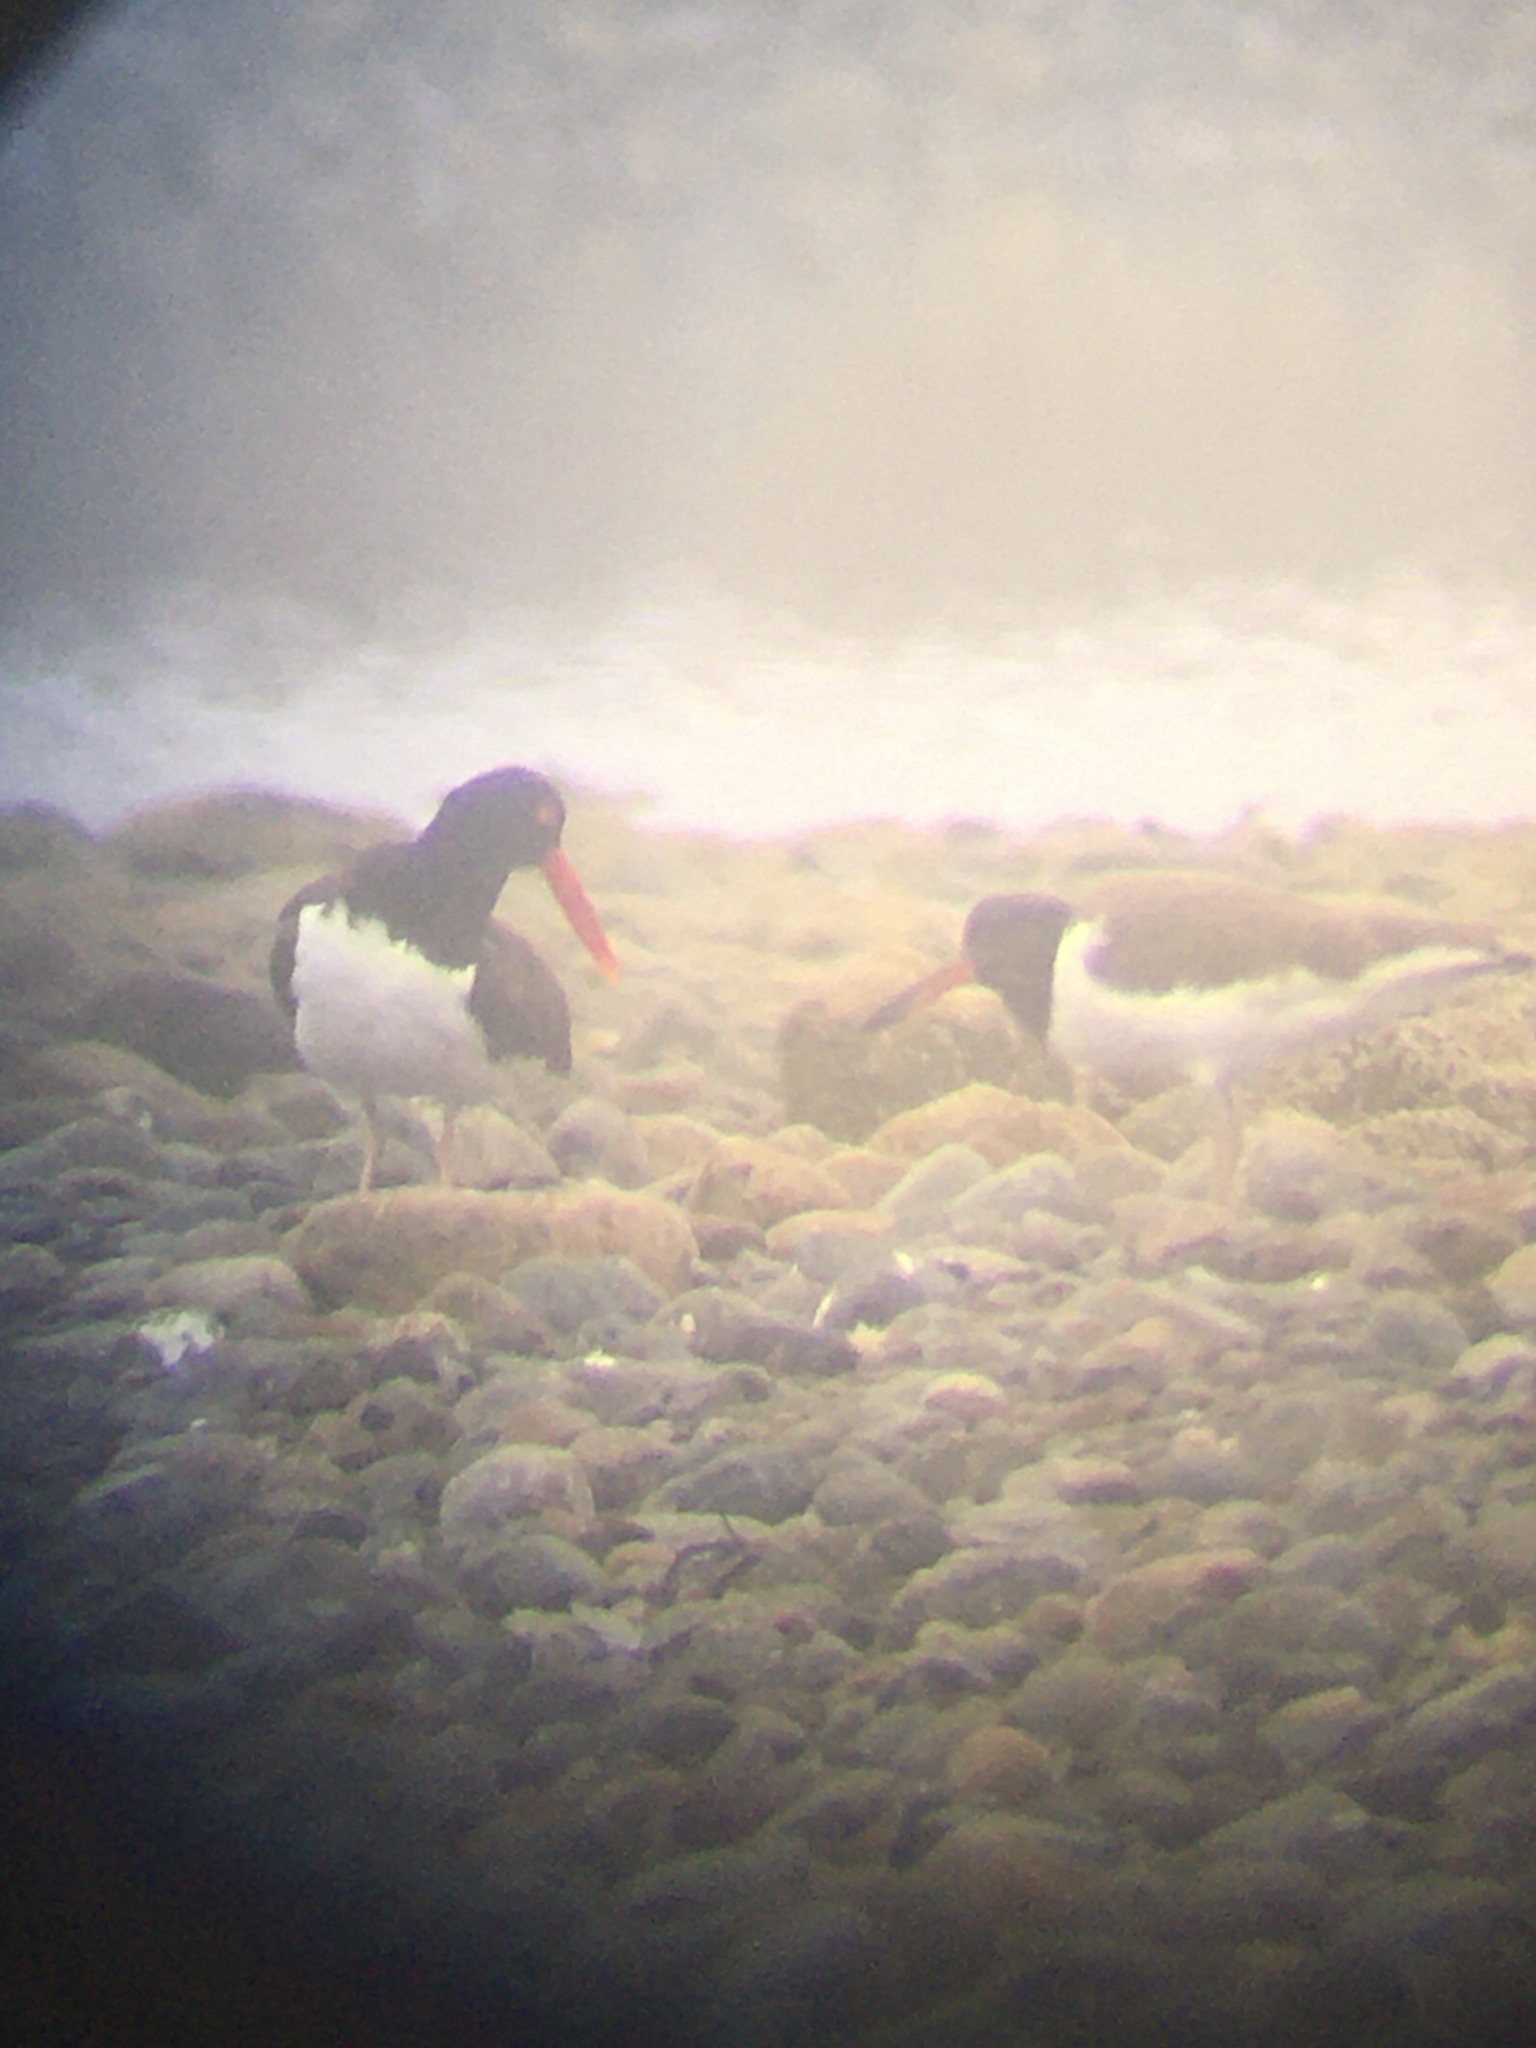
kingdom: Animalia
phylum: Chordata
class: Aves
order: Charadriiformes
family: Haematopodidae
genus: Haematopus
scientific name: Haematopus palliatus
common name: American oystercatcher
